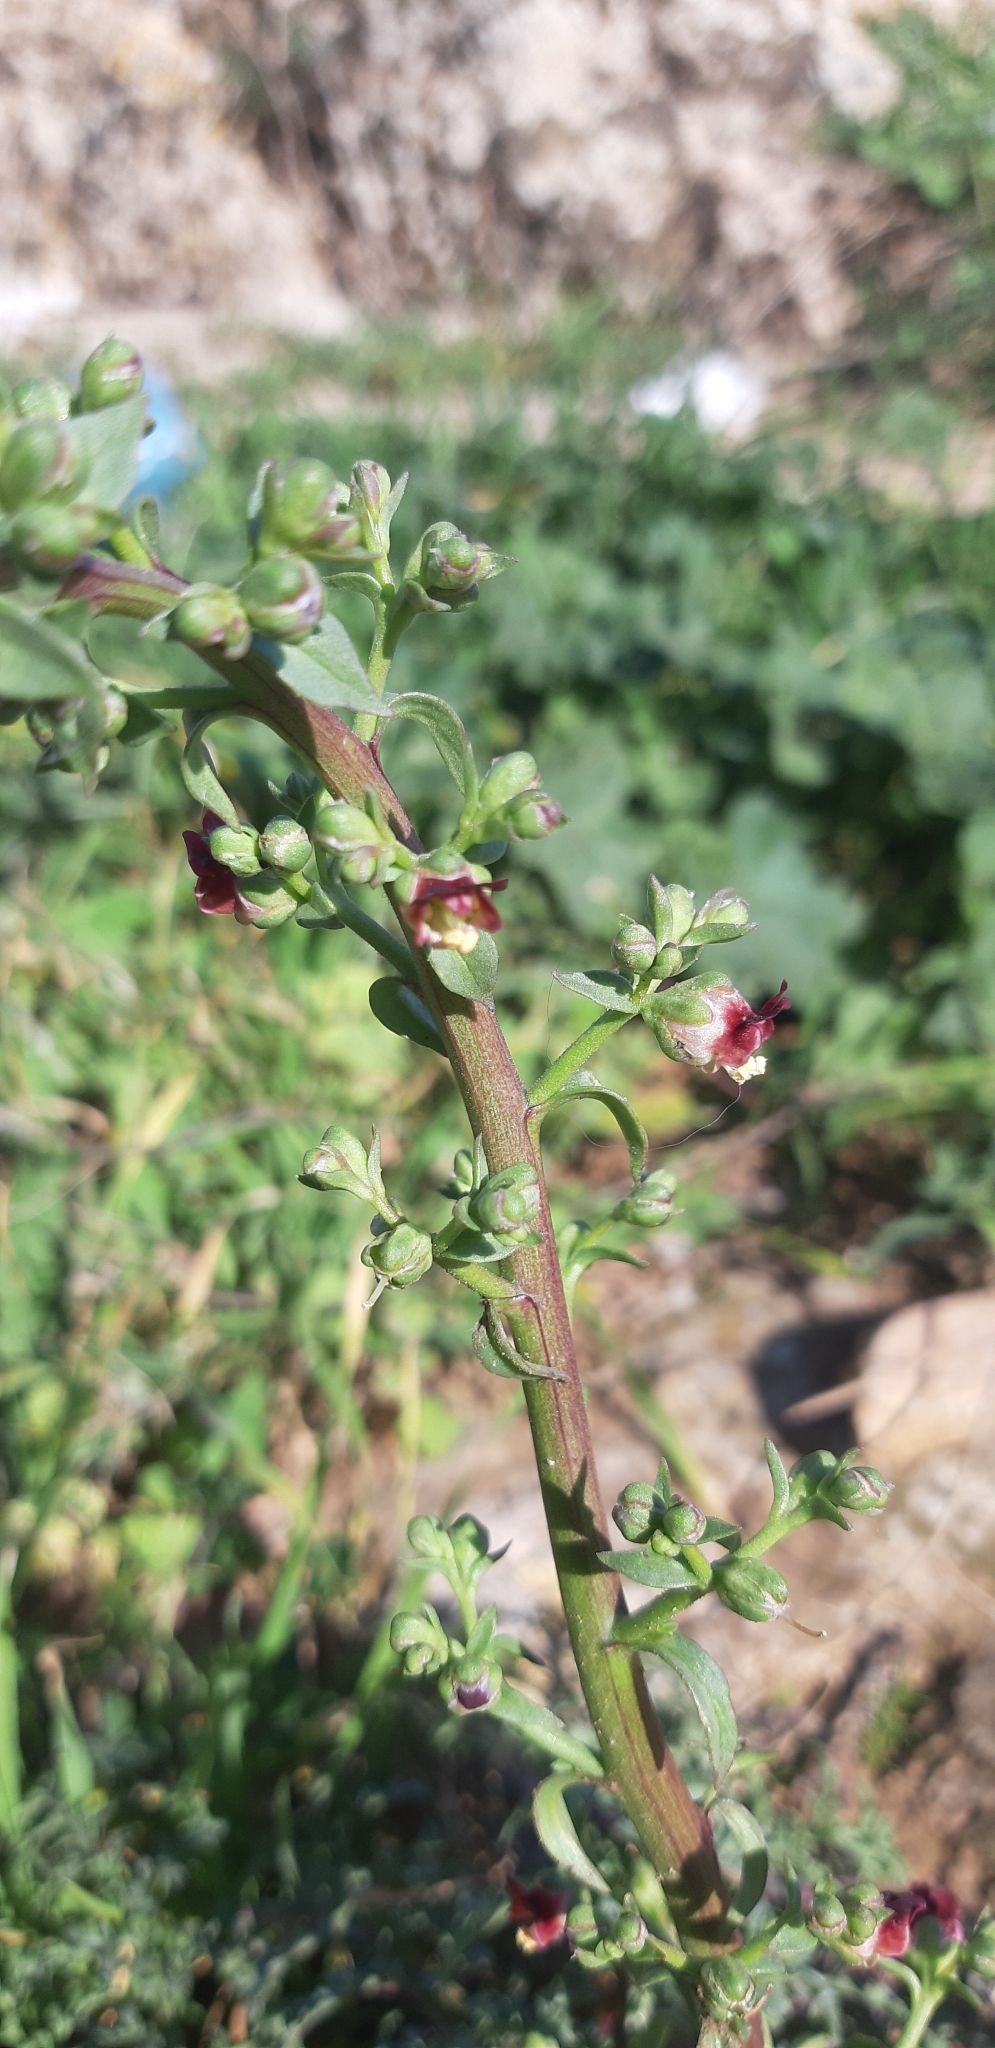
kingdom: Plantae
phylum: Tracheophyta
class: Magnoliopsida
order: Lamiales
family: Scrophulariaceae
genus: Scrophularia
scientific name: Scrophularia lucida
